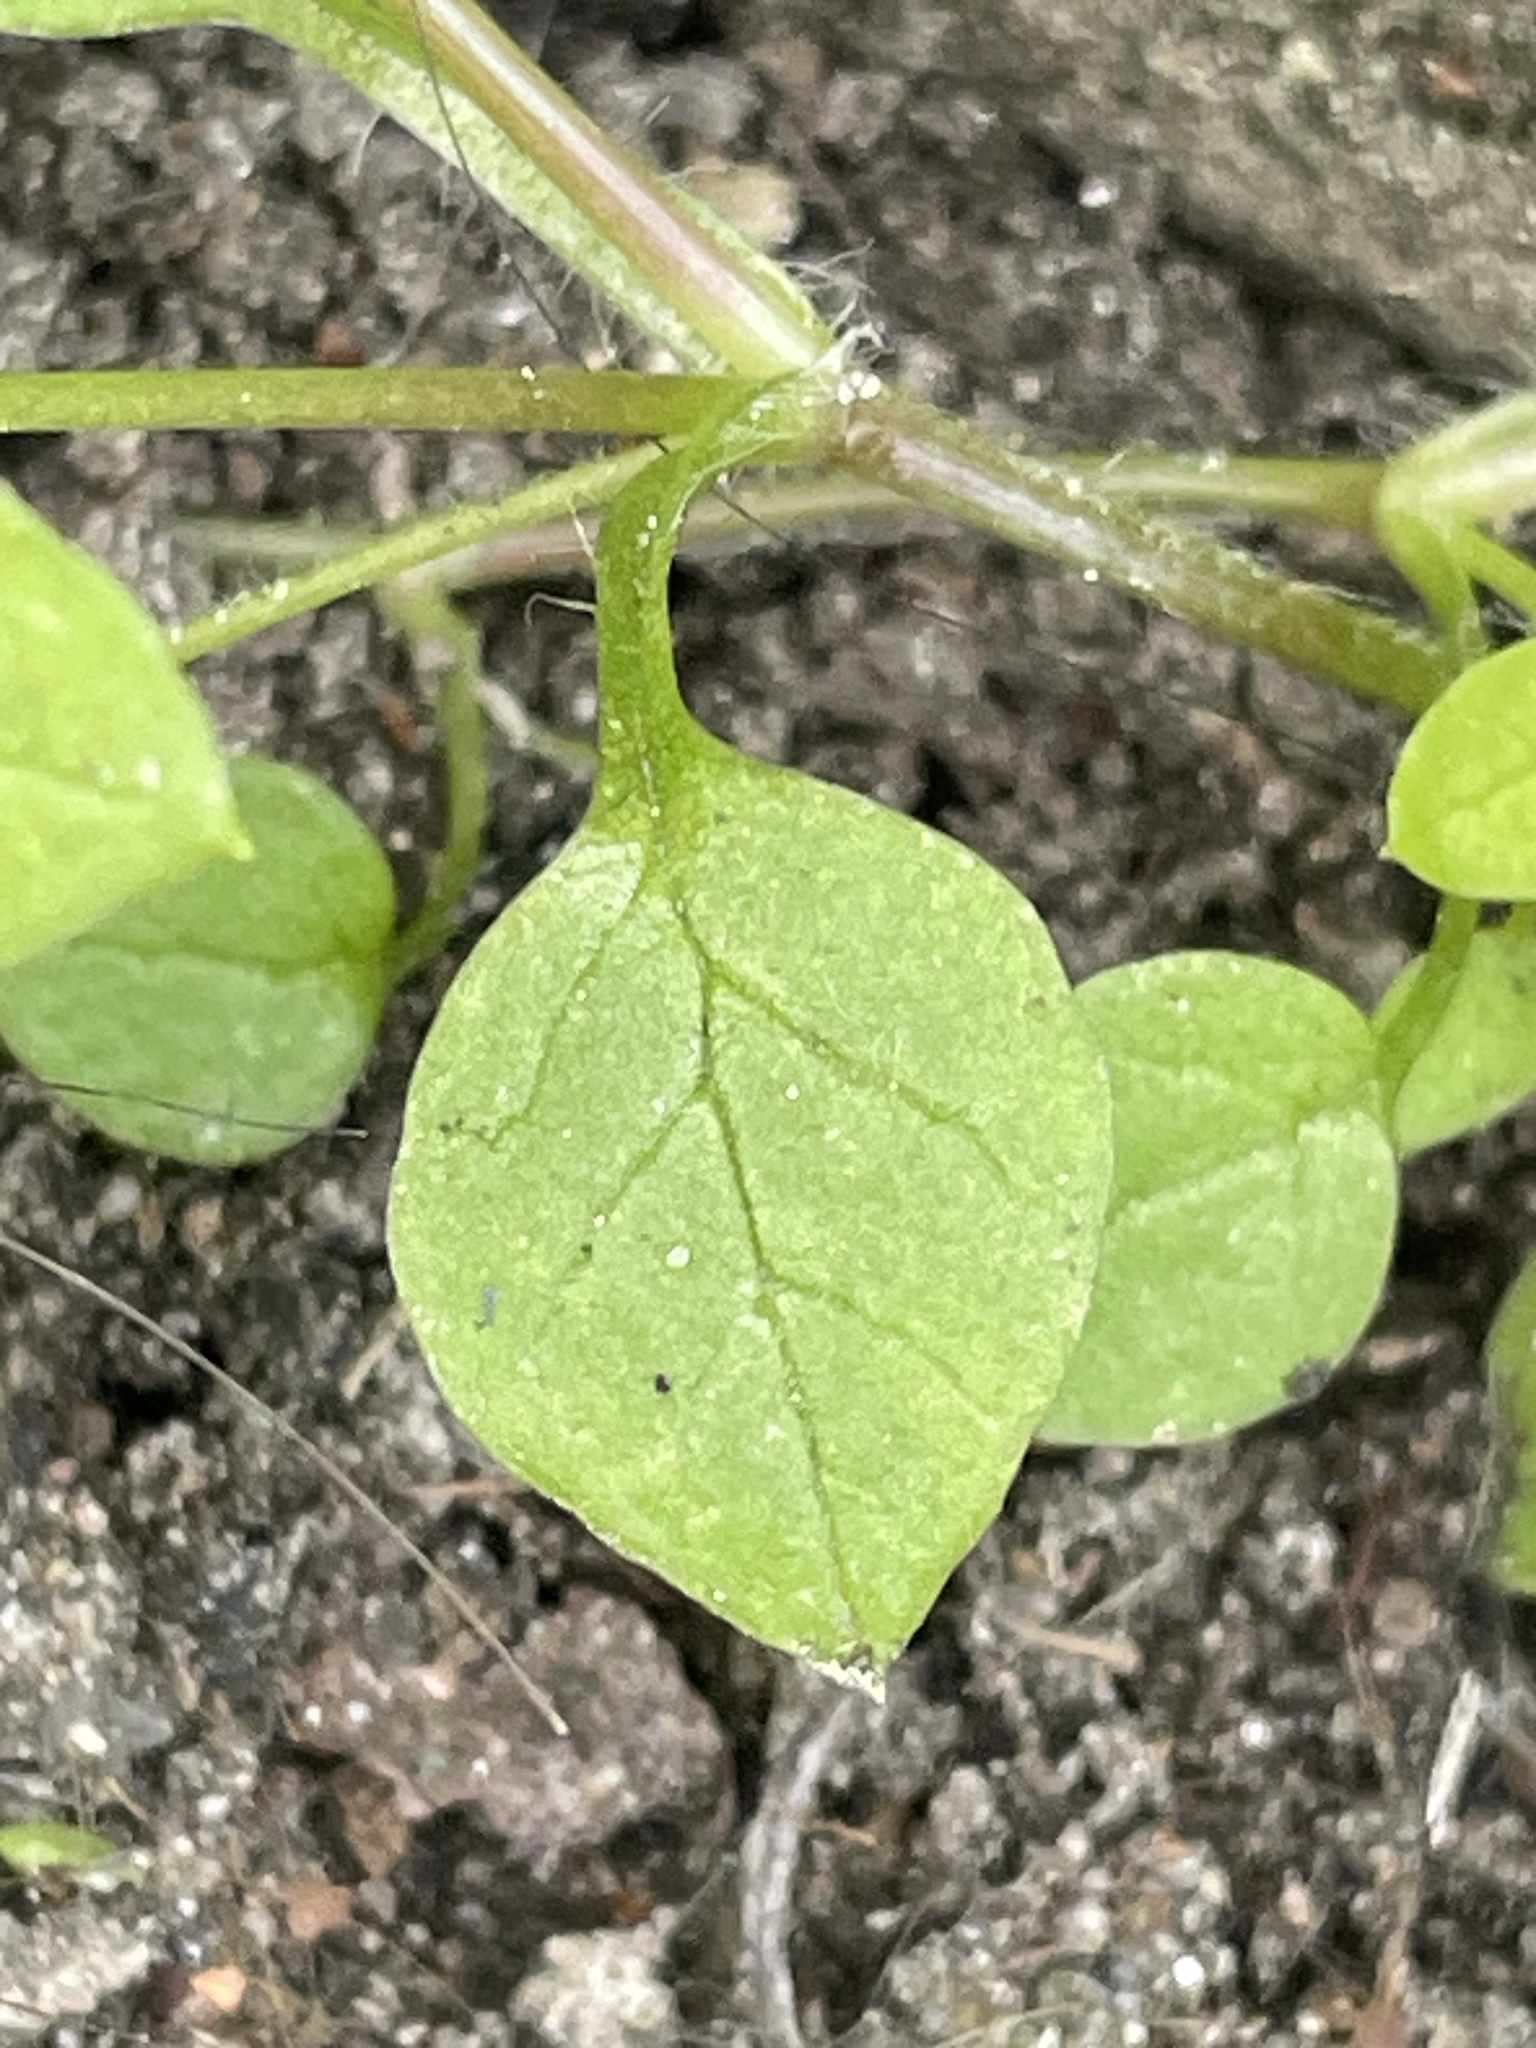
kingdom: Plantae
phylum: Tracheophyta
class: Magnoliopsida
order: Caryophyllales
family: Caryophyllaceae
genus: Stellaria
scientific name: Stellaria media
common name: Common chickweed
